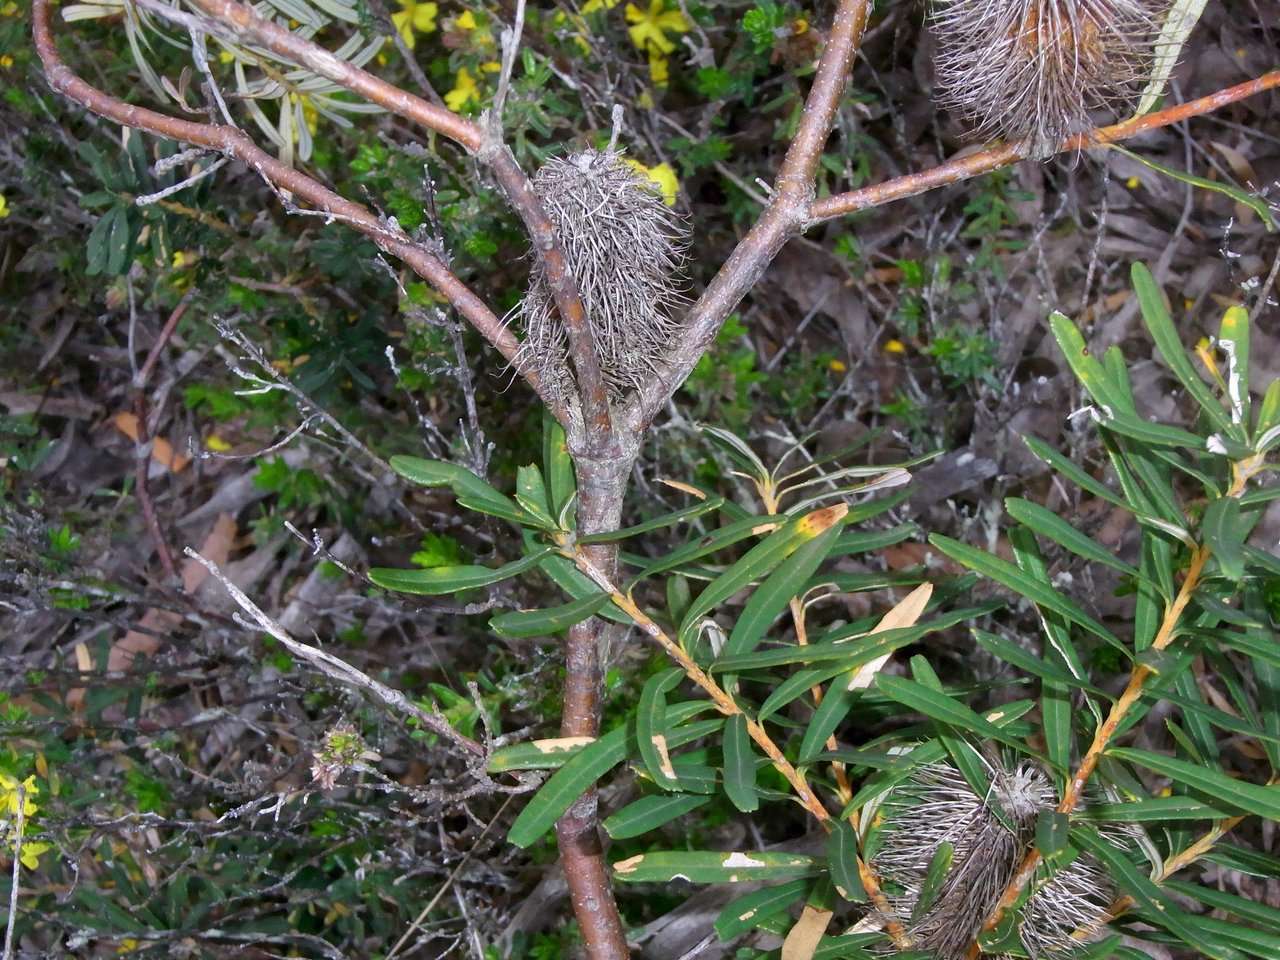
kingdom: Plantae
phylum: Tracheophyta
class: Magnoliopsida
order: Proteales
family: Proteaceae
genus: Banksia
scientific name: Banksia marginata
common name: Silver banksia
